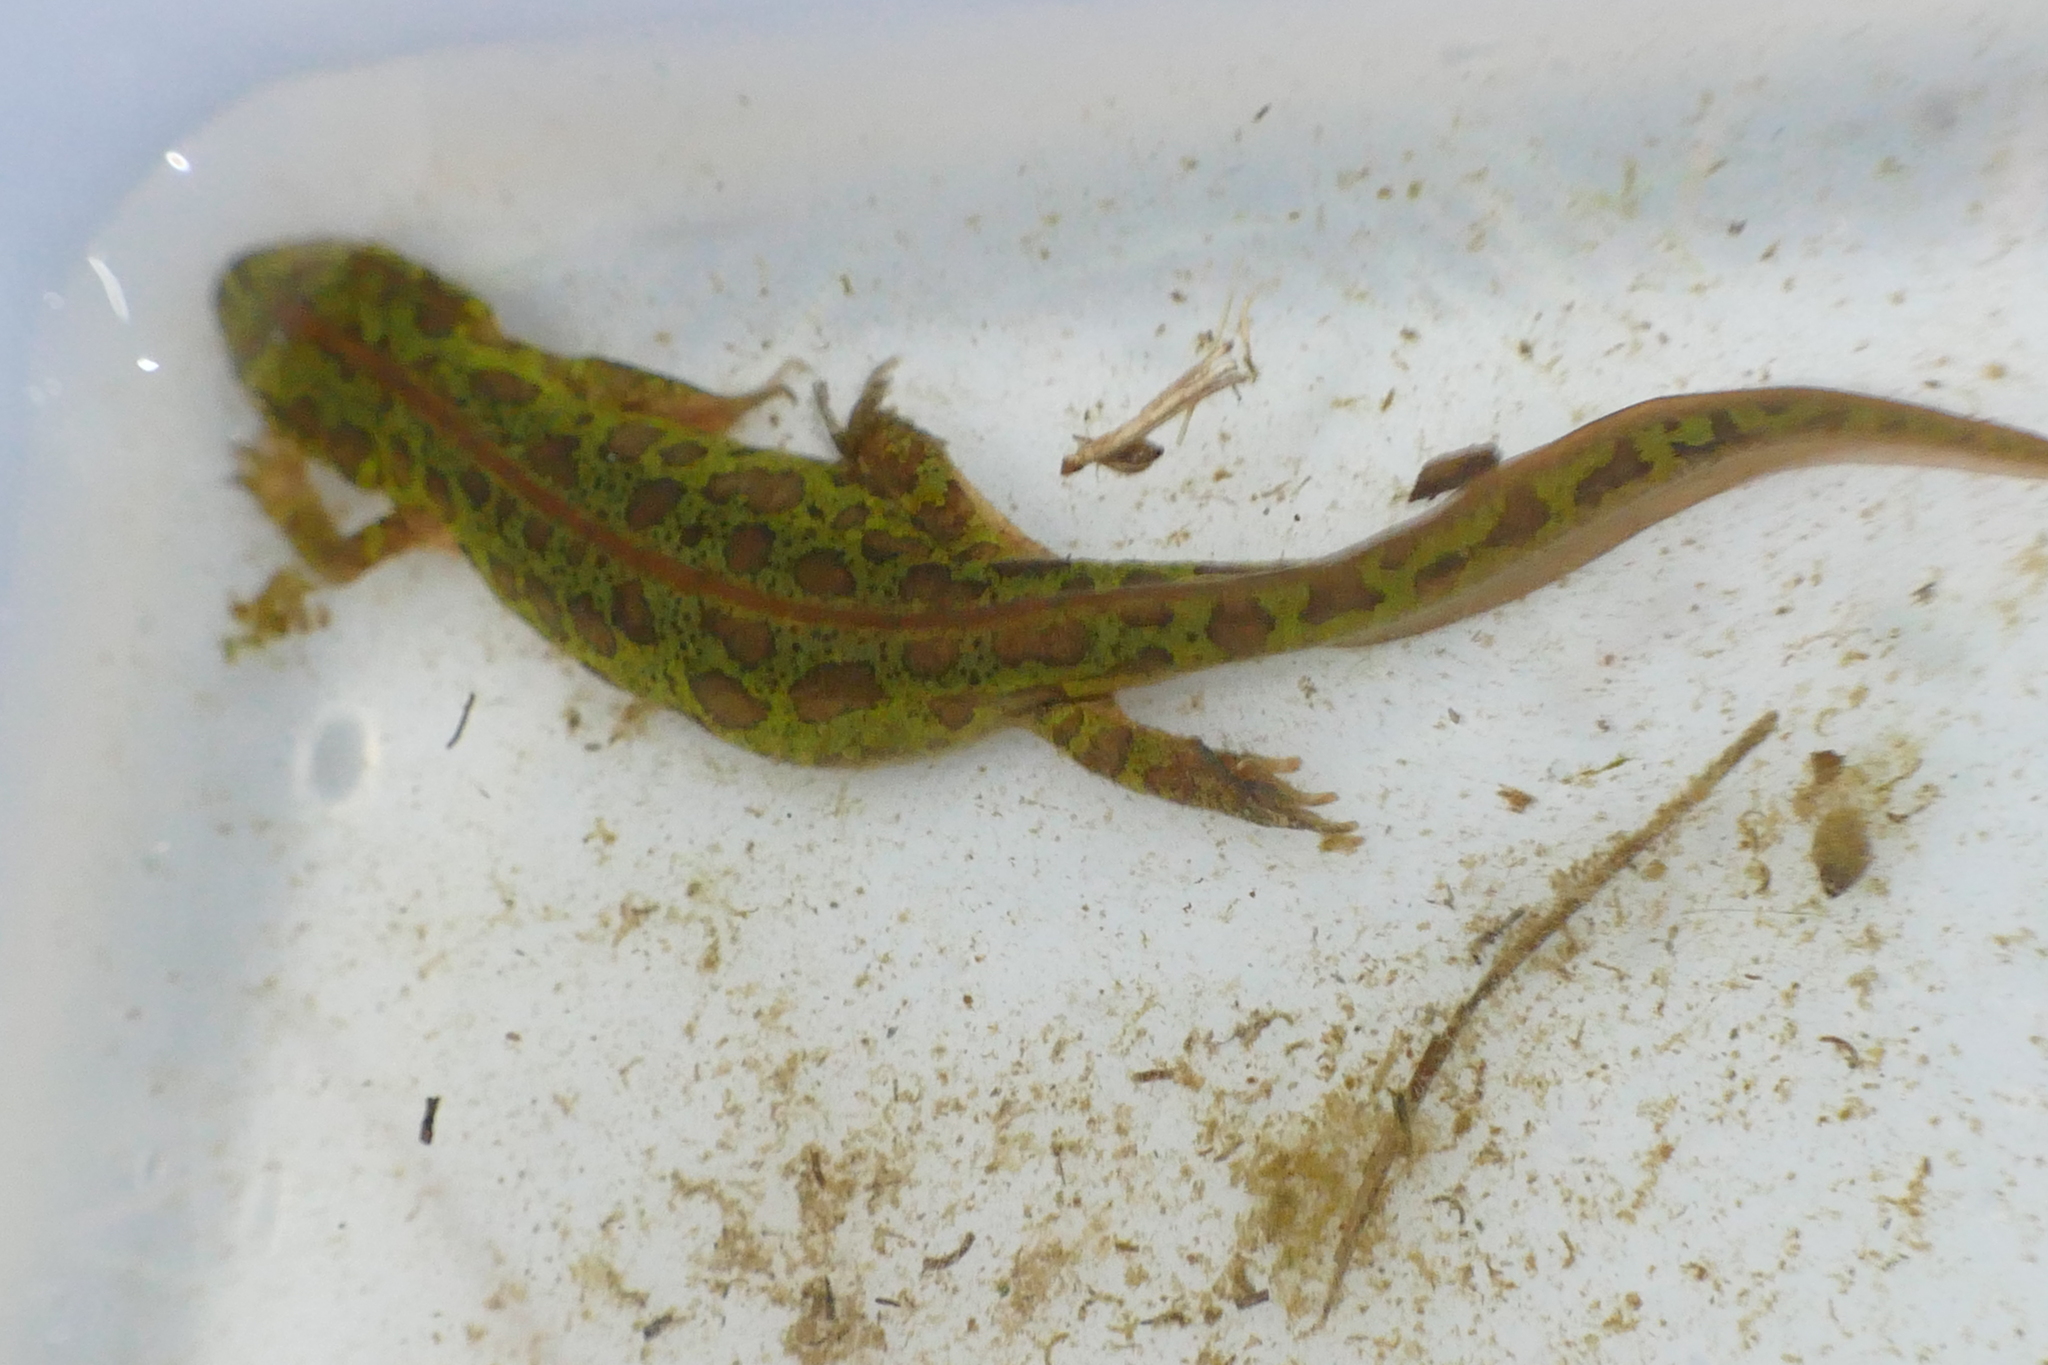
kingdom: Animalia
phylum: Chordata
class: Amphibia
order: Caudata
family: Salamandridae
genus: Triturus
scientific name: Triturus pygmaeus
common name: Southern marbled newt
